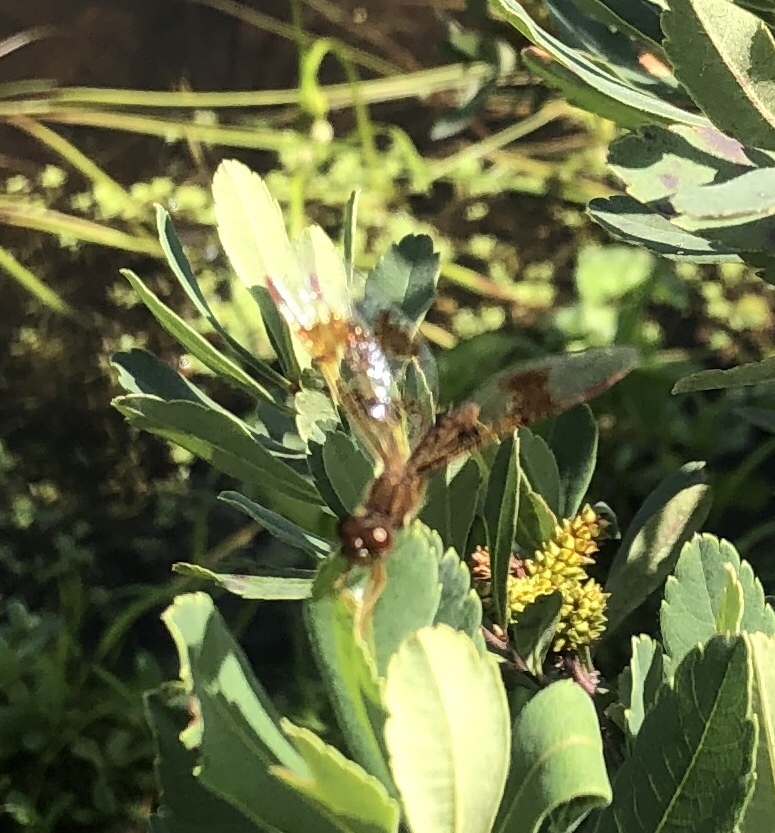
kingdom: Animalia
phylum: Arthropoda
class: Insecta
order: Odonata
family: Libellulidae
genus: Perithemis
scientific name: Perithemis tenera
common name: Eastern amberwing
